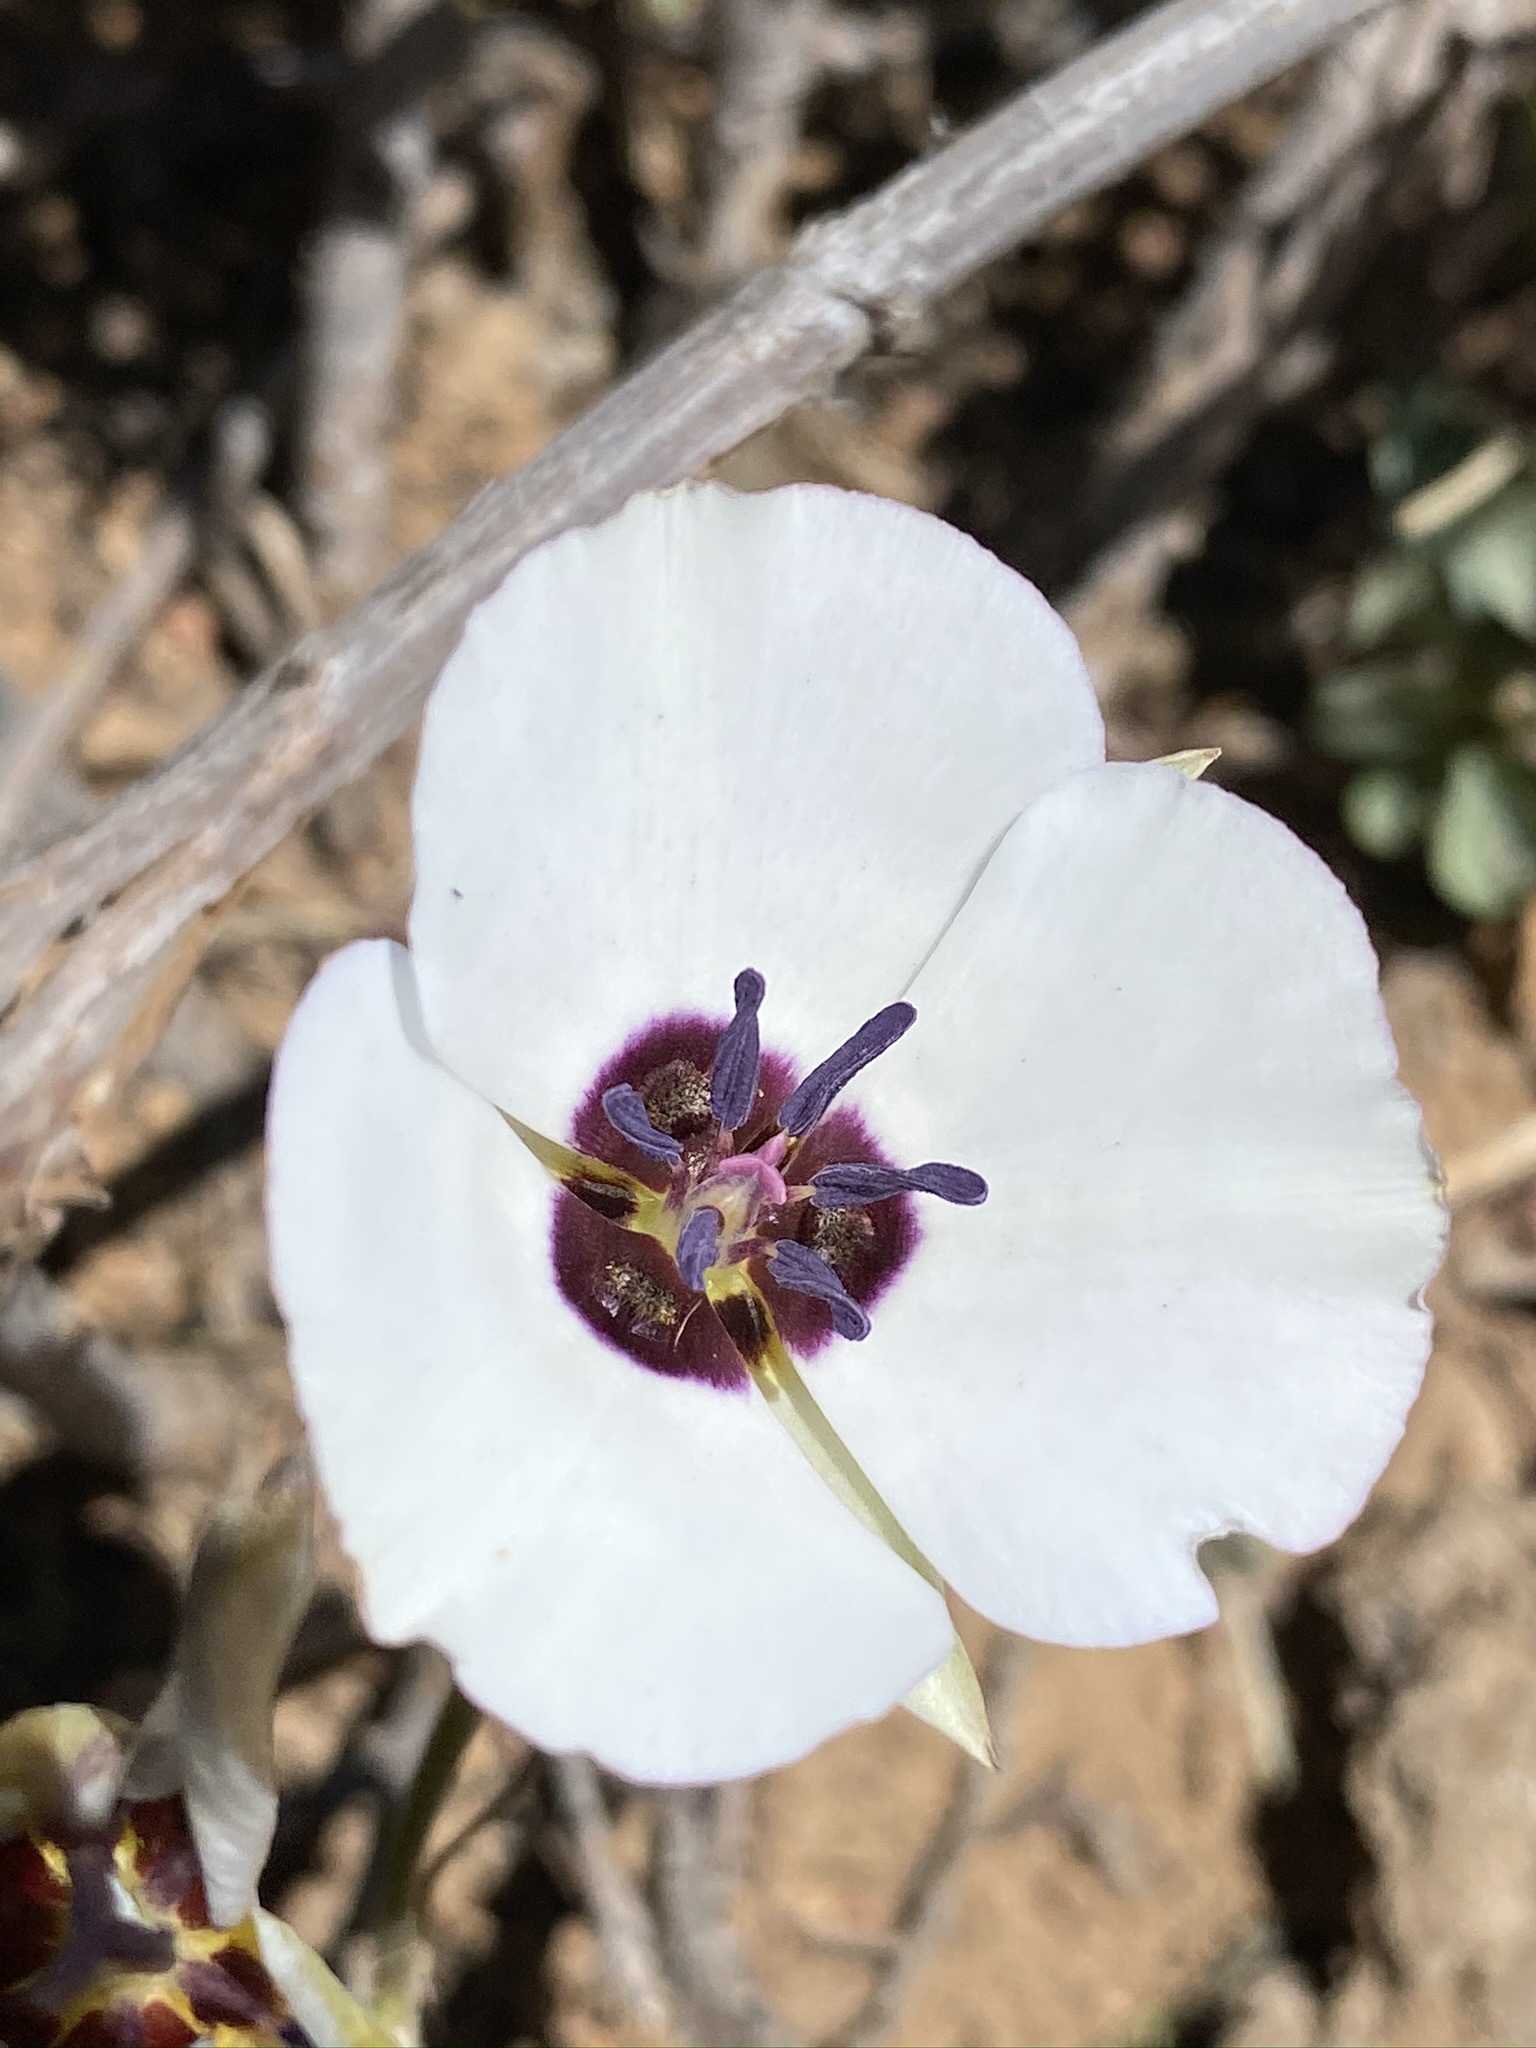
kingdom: Plantae
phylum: Tracheophyta
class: Liliopsida
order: Liliales
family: Liliaceae
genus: Calochortus
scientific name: Calochortus bruneaunis
